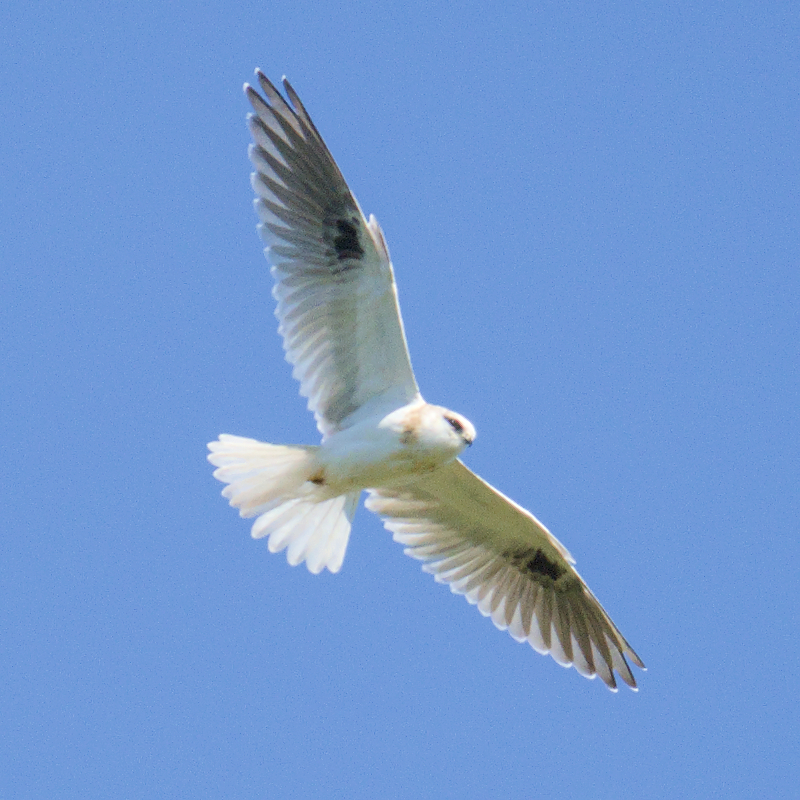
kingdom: Animalia
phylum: Chordata
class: Aves
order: Accipitriformes
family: Accipitridae
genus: Elanus
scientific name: Elanus axillaris
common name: Black-shouldered kite
